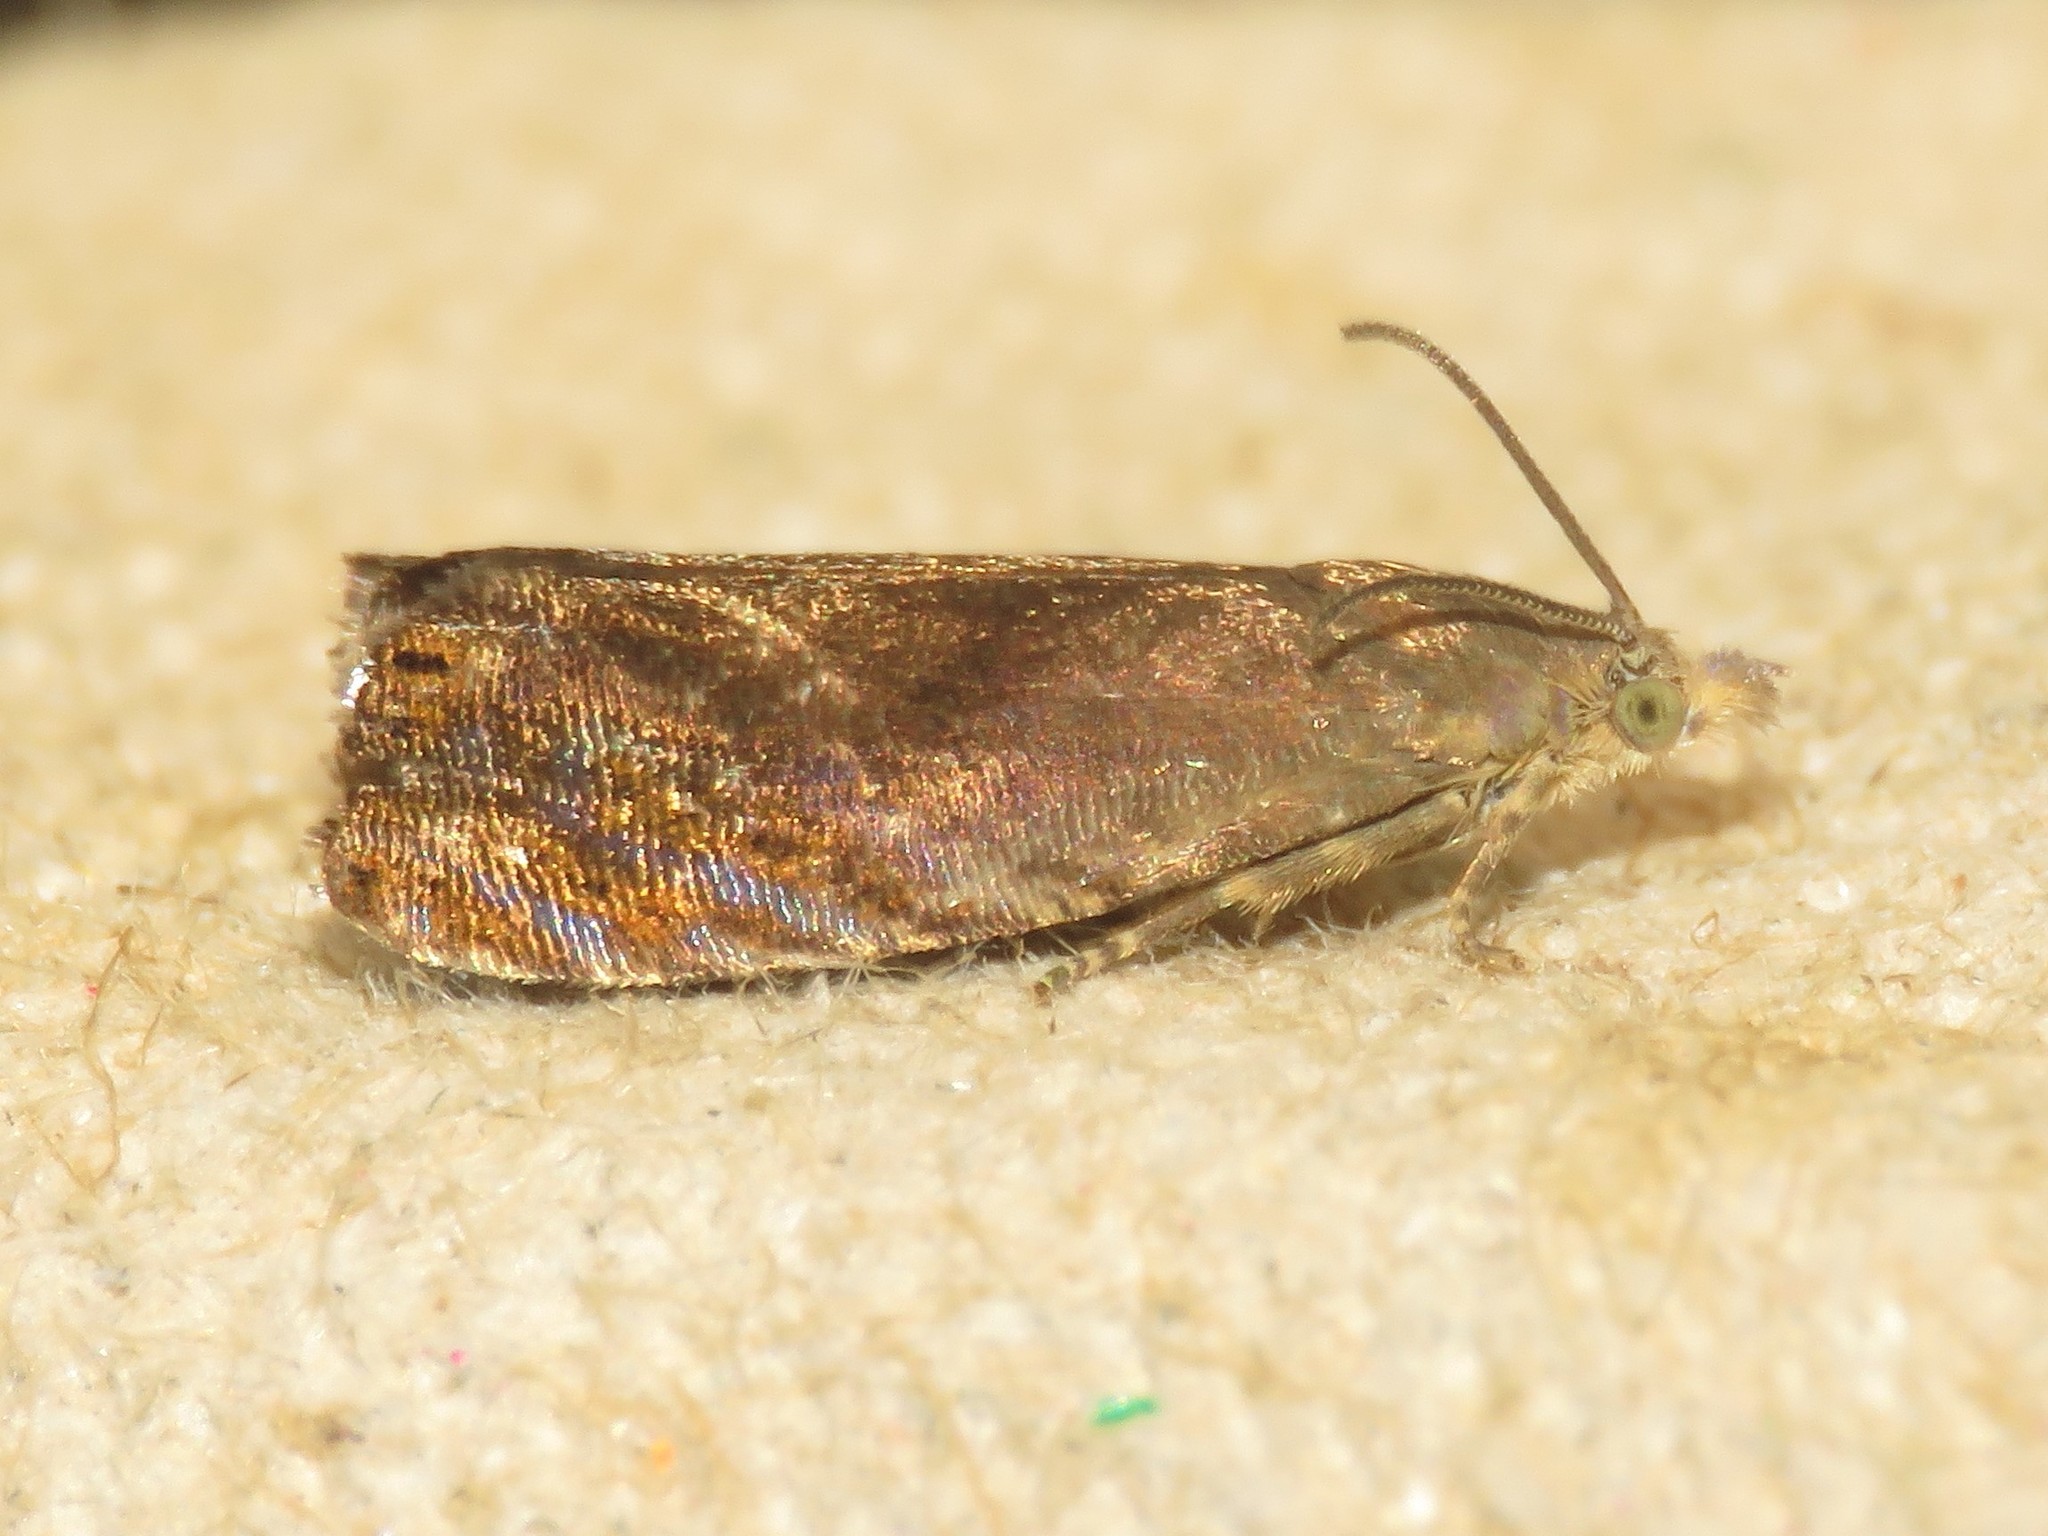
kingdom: Animalia
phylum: Arthropoda
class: Insecta
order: Lepidoptera
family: Tortricidae
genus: Dichrorampha
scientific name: Dichrorampha bittana
